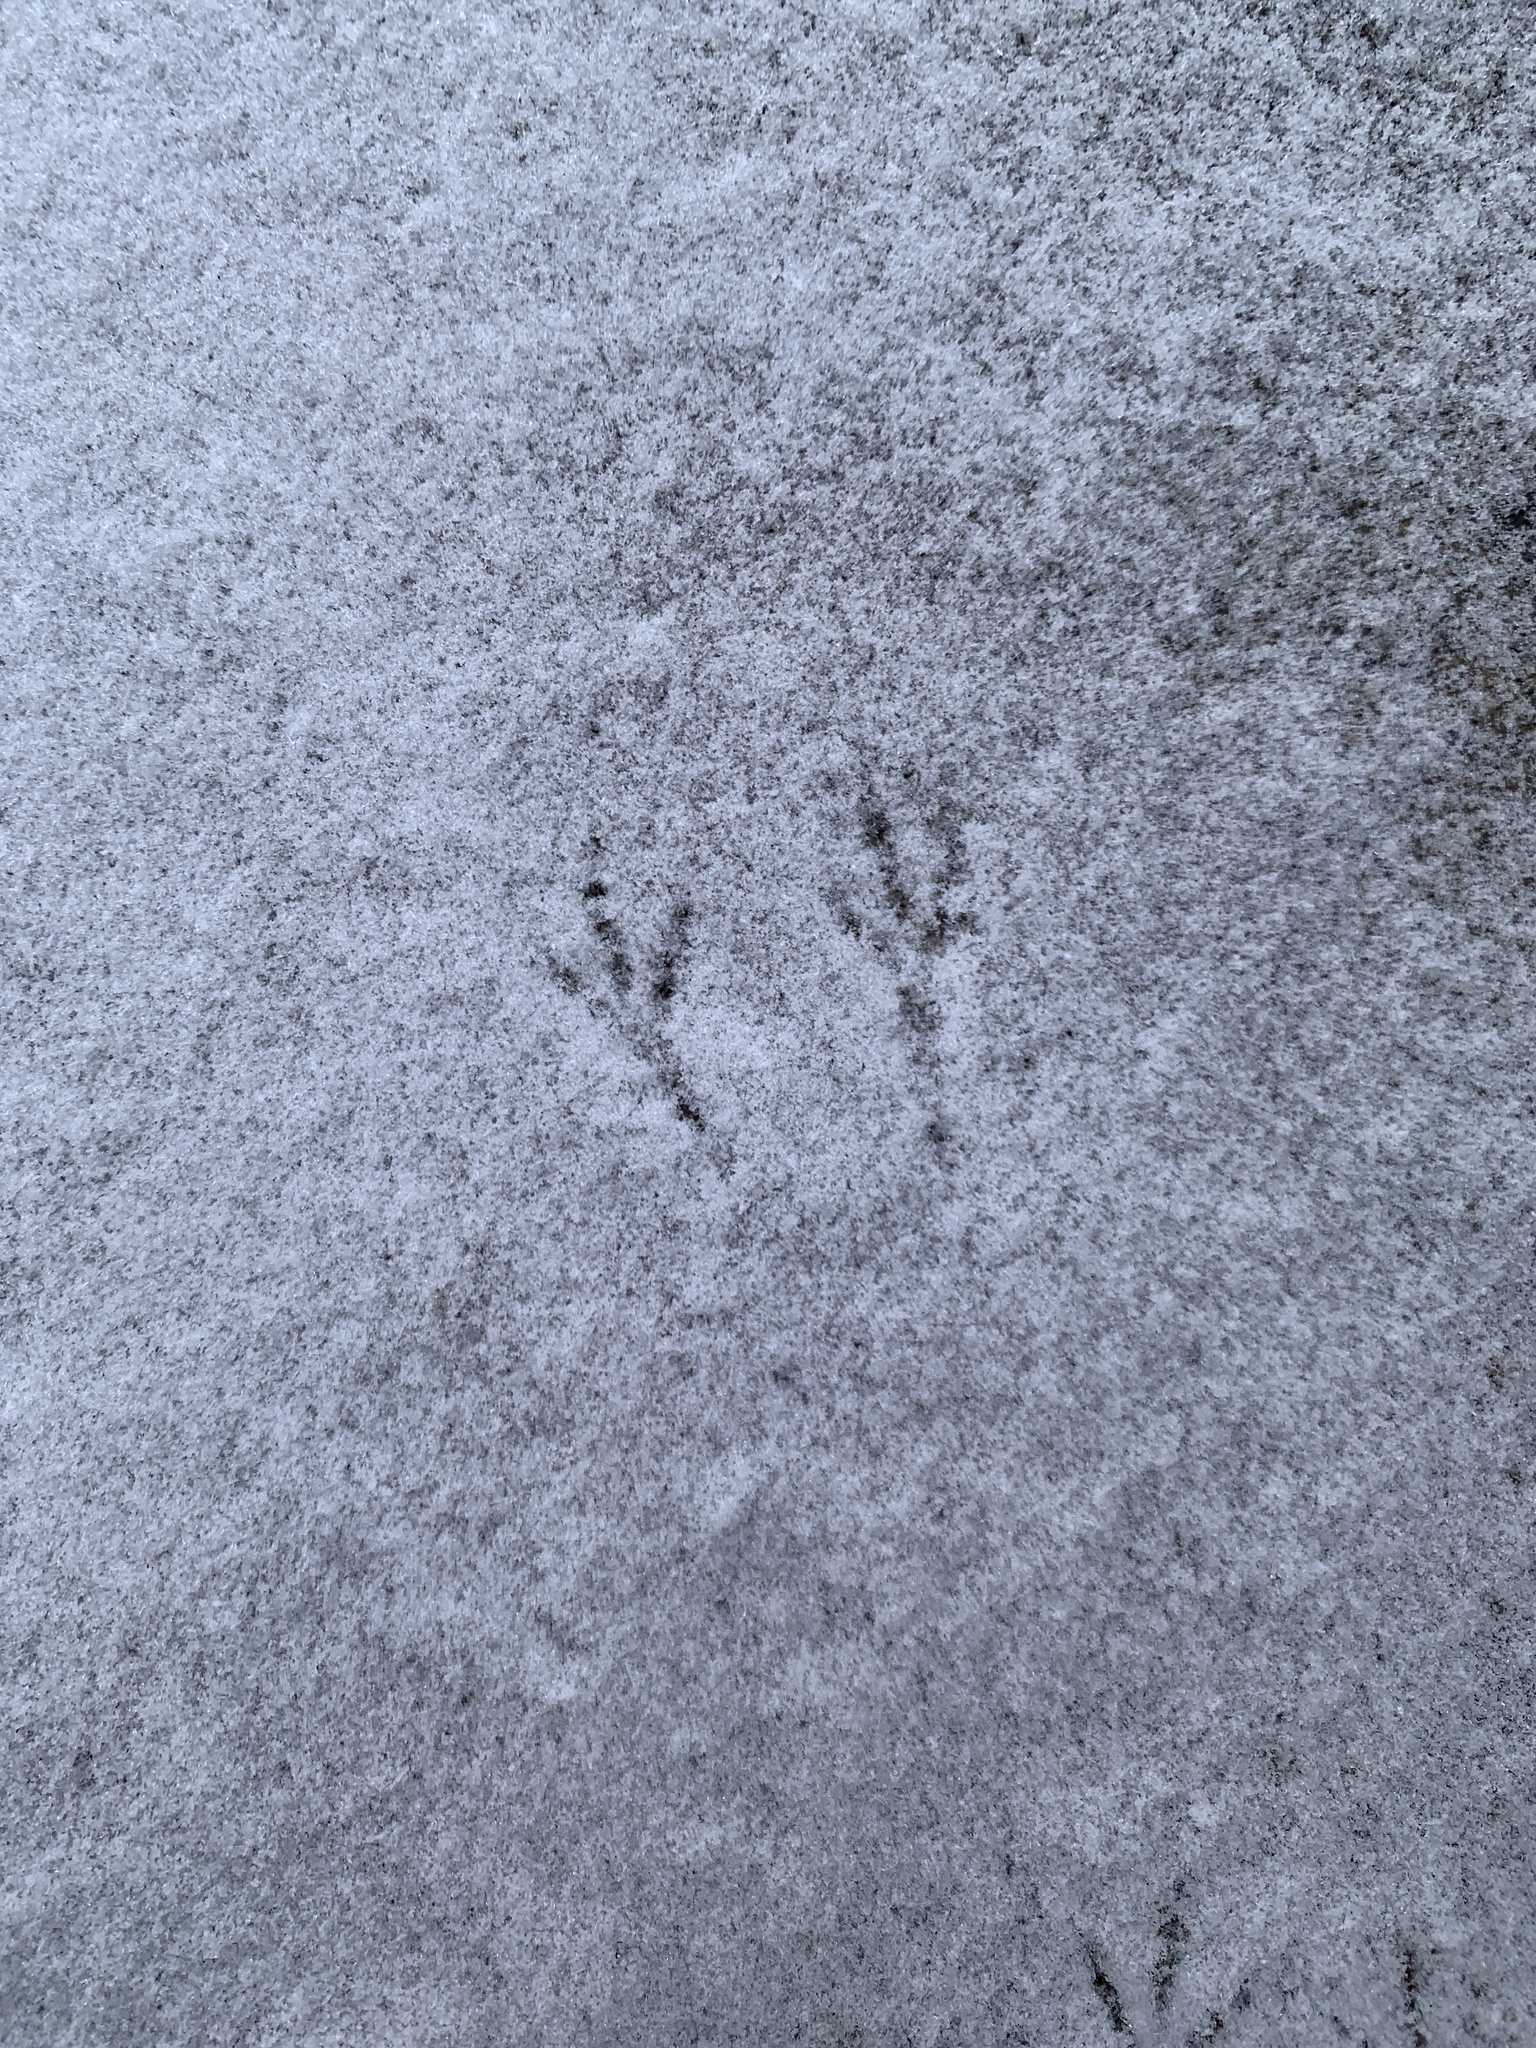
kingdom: Animalia
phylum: Chordata
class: Aves
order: Passeriformes
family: Passerellidae
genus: Junco
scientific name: Junco hyemalis
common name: Dark-eyed junco
